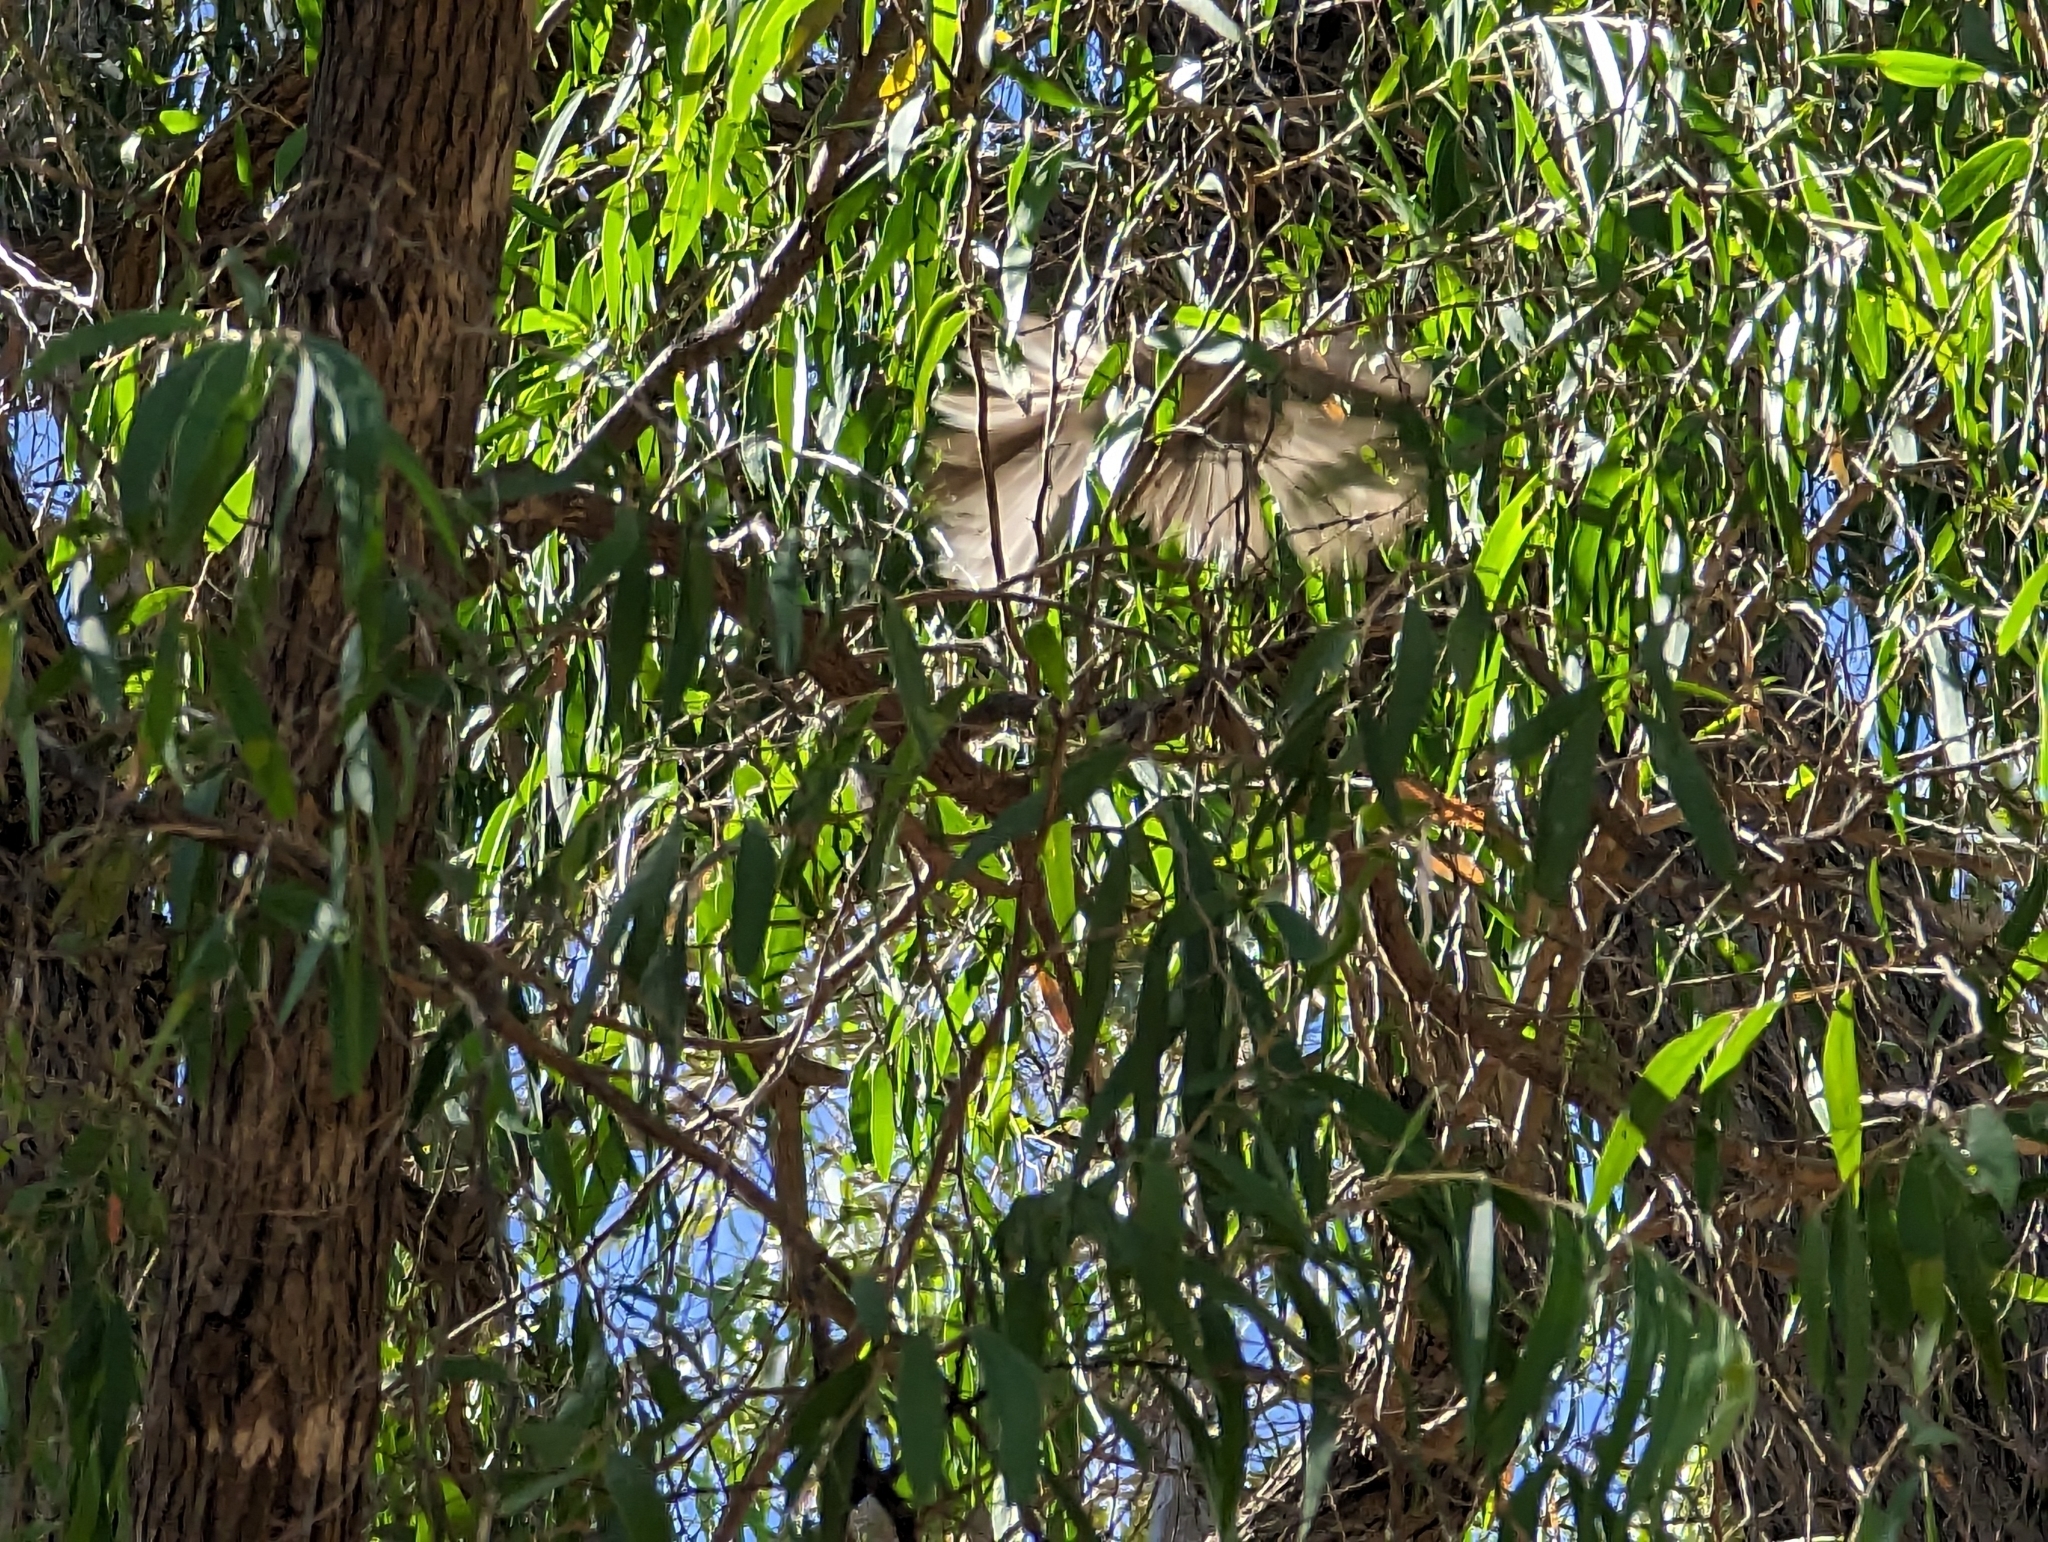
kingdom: Animalia
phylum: Chordata
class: Aves
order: Passeriformes
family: Rhipiduridae
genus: Rhipidura
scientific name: Rhipidura albiscapa
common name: Grey fantail
